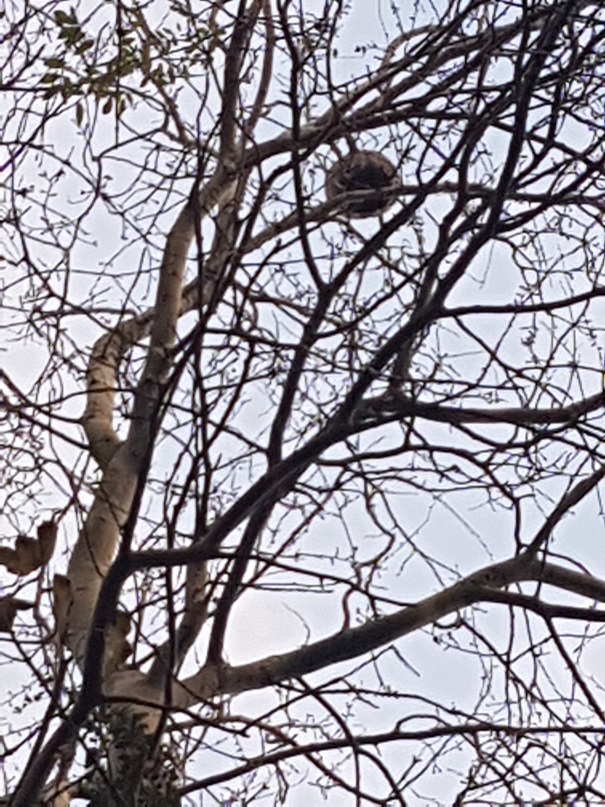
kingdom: Animalia
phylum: Arthropoda
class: Insecta
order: Hymenoptera
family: Vespidae
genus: Vespa
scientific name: Vespa velutina
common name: Asian hornet
